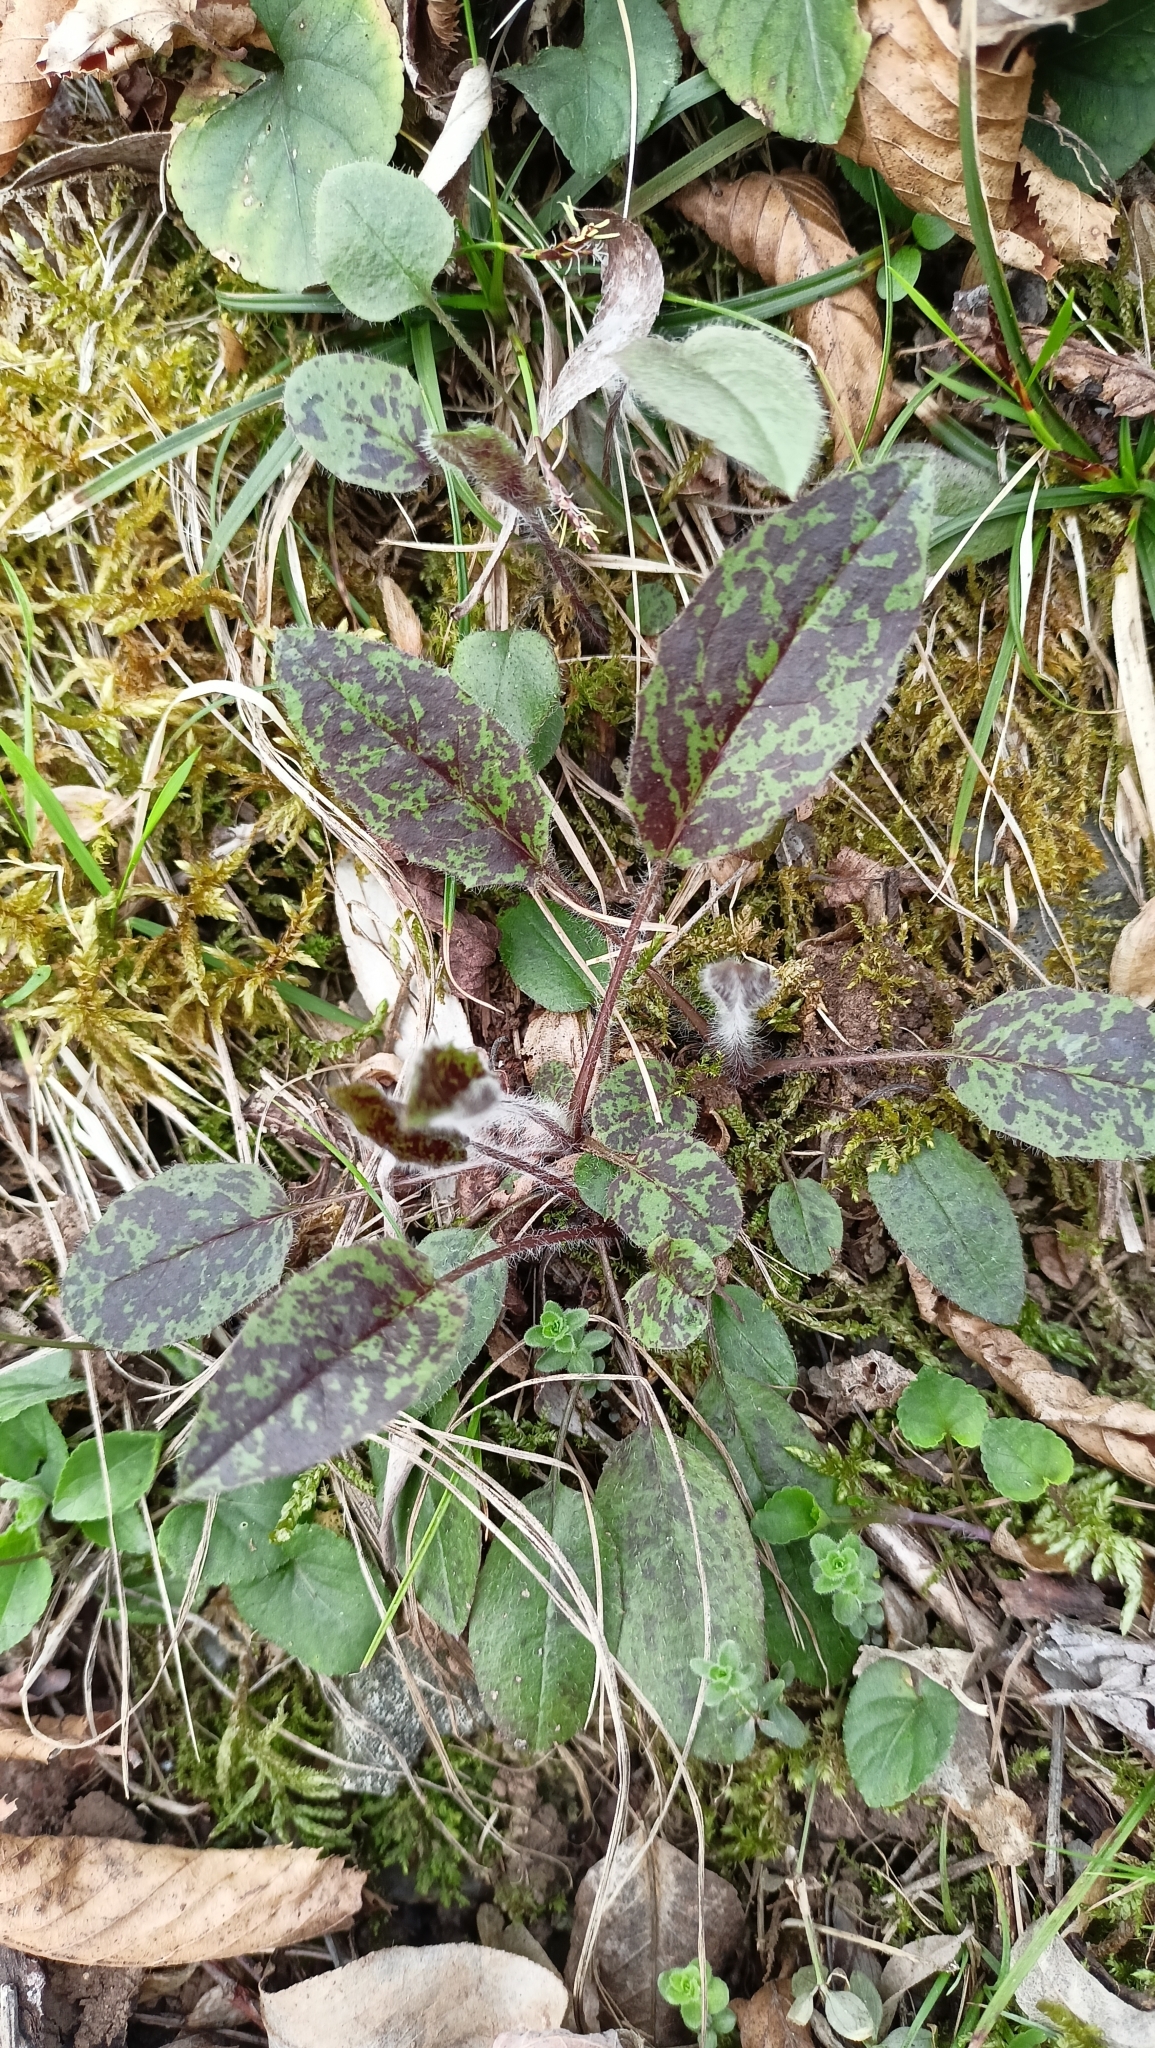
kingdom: Plantae
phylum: Tracheophyta
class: Magnoliopsida
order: Asterales
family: Asteraceae
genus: Hieracium
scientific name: Hieracium glaucinum
